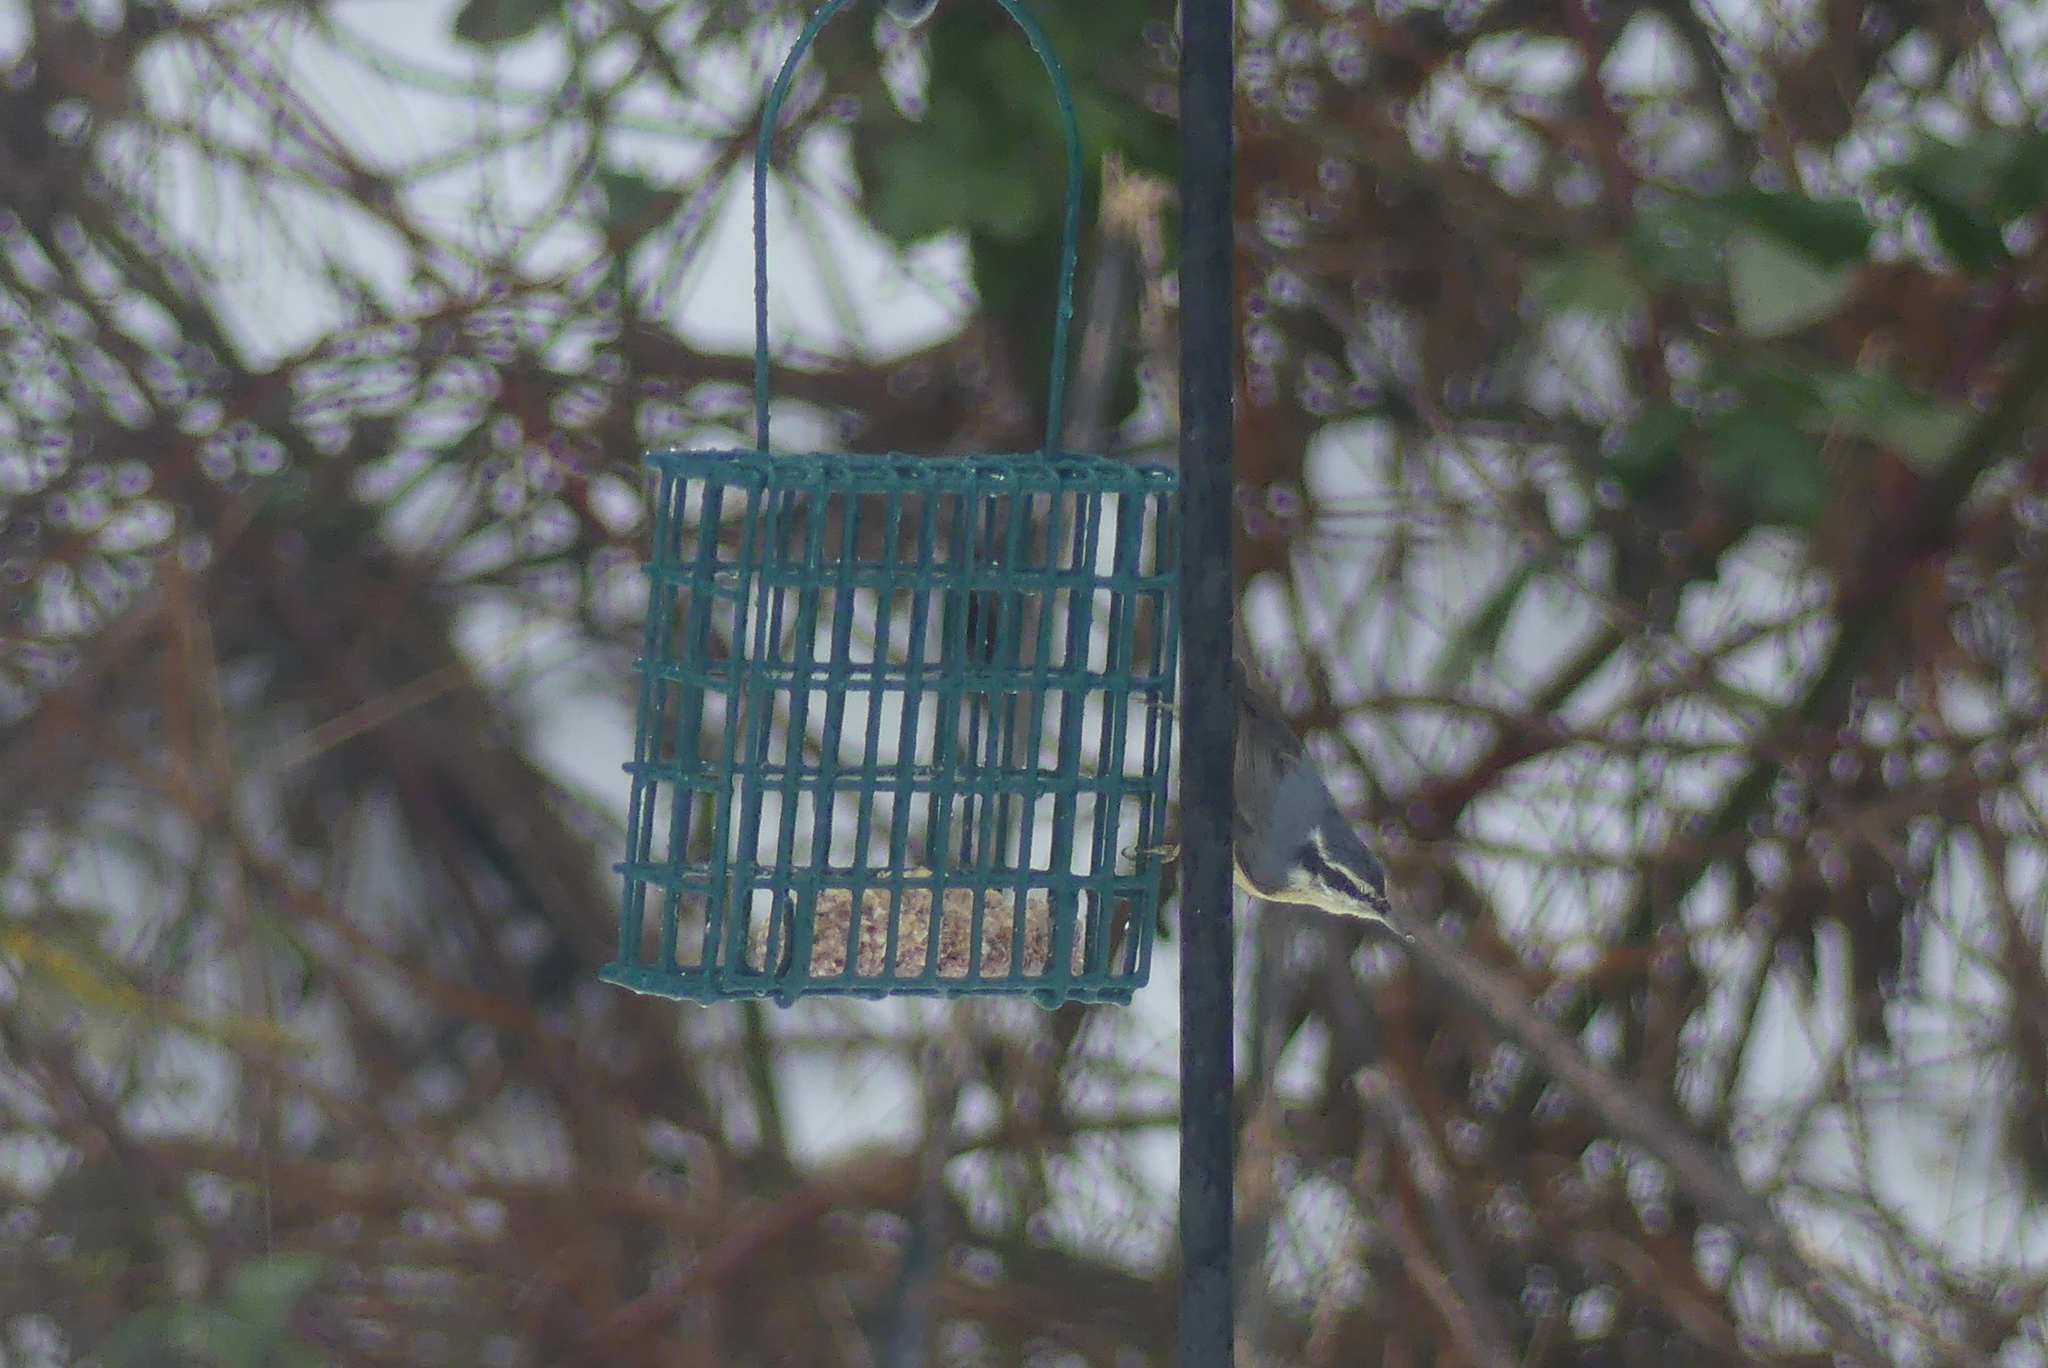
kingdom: Animalia
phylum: Chordata
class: Aves
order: Passeriformes
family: Sittidae
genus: Sitta
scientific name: Sitta canadensis
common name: Red-breasted nuthatch
